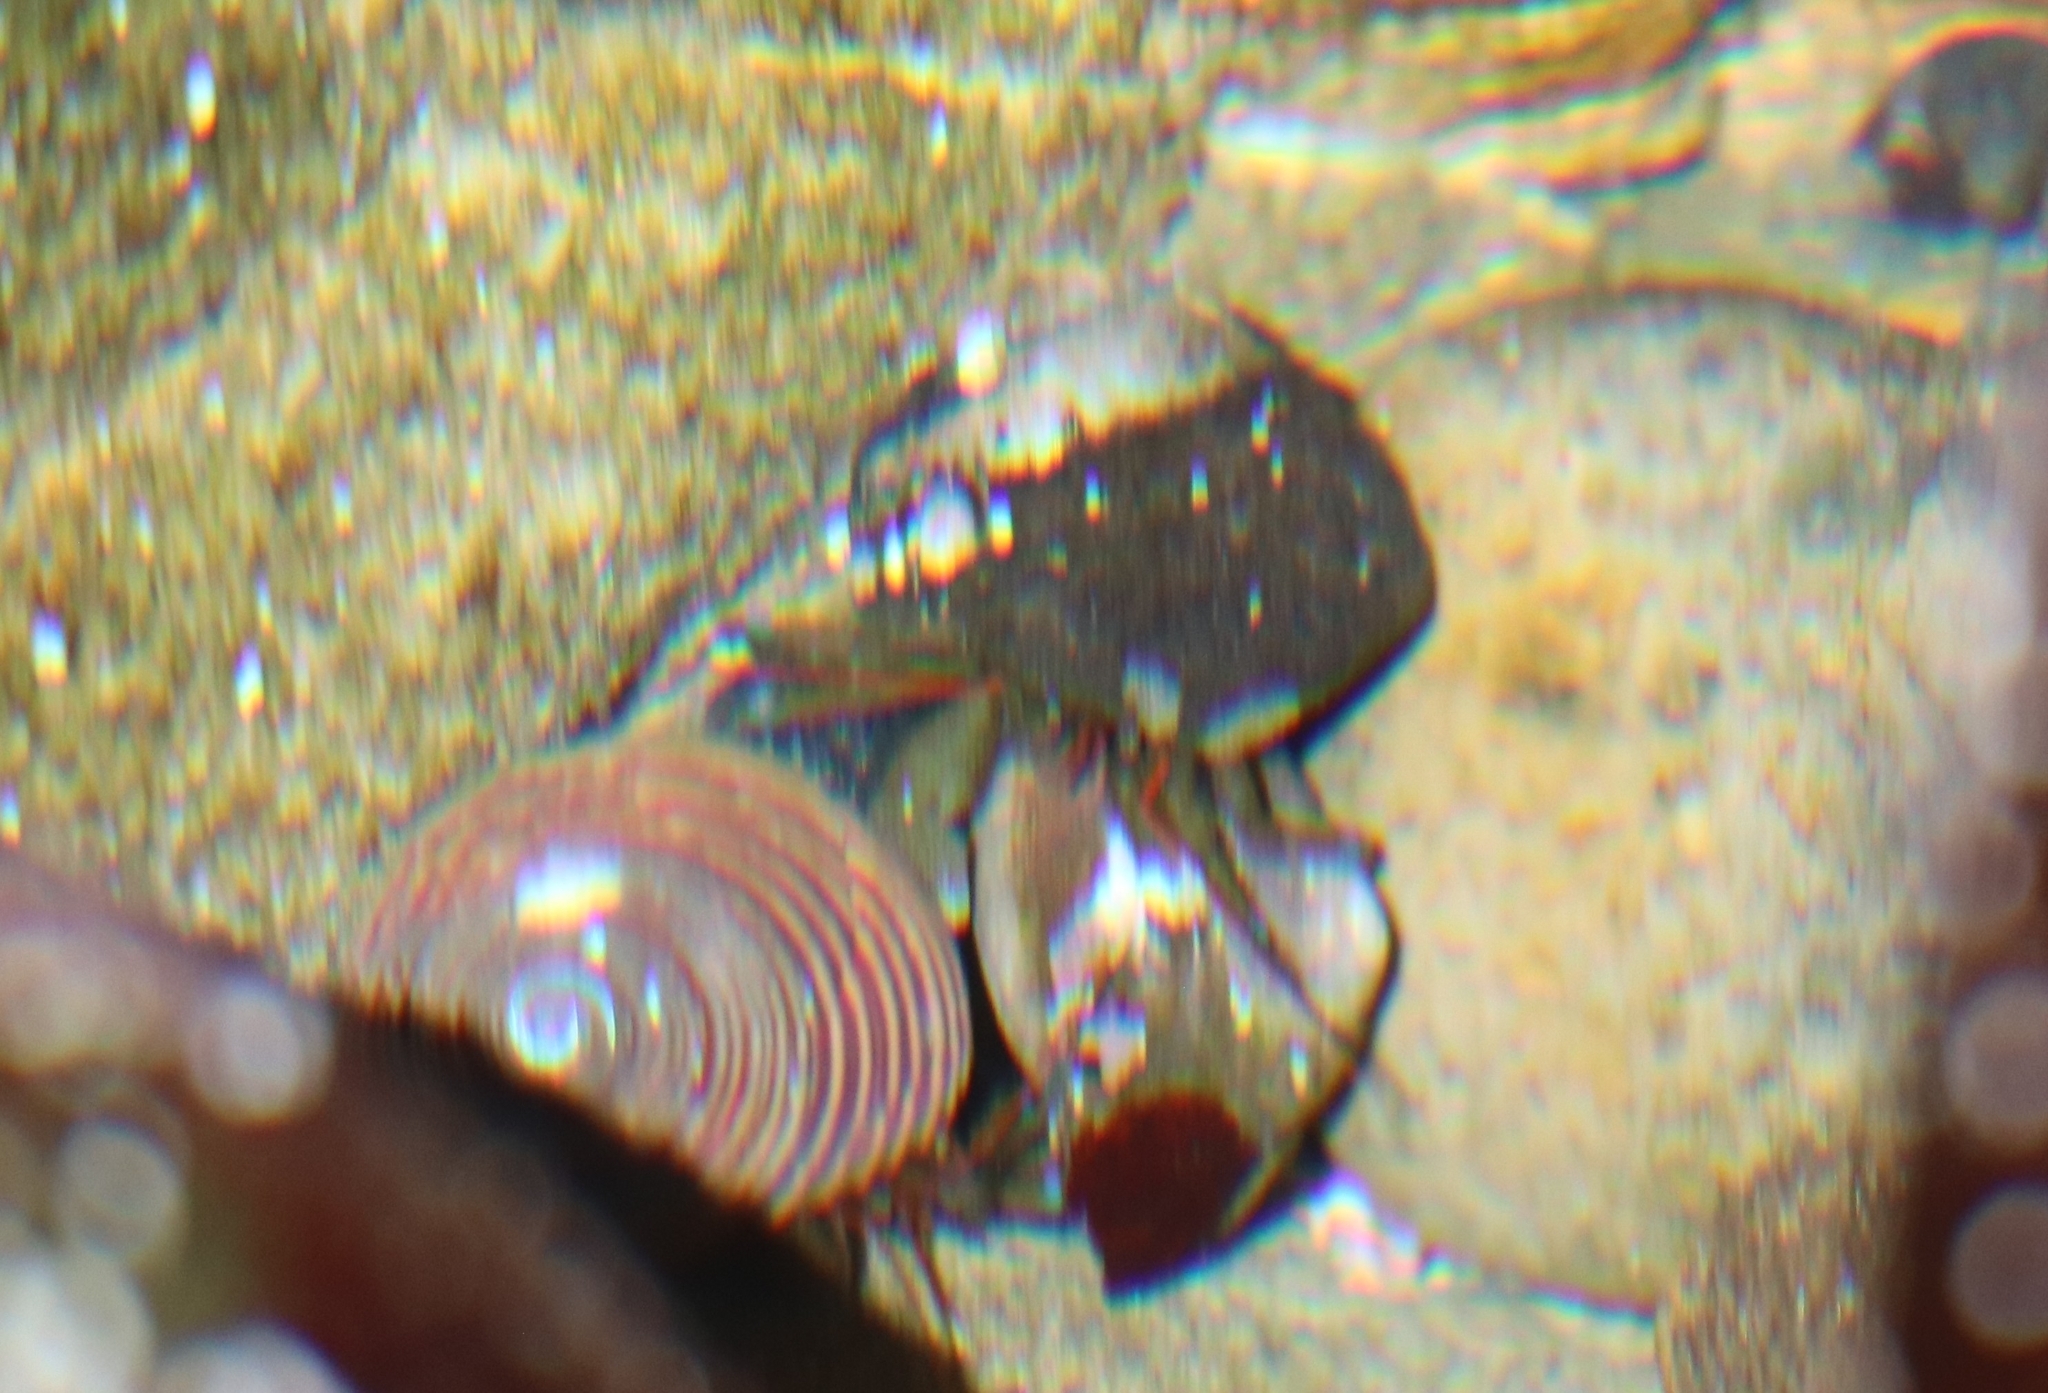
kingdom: Animalia
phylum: Arthropoda
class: Malacostraca
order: Decapoda
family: Paguridae
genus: Pagurus
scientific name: Pagurus samuelis
